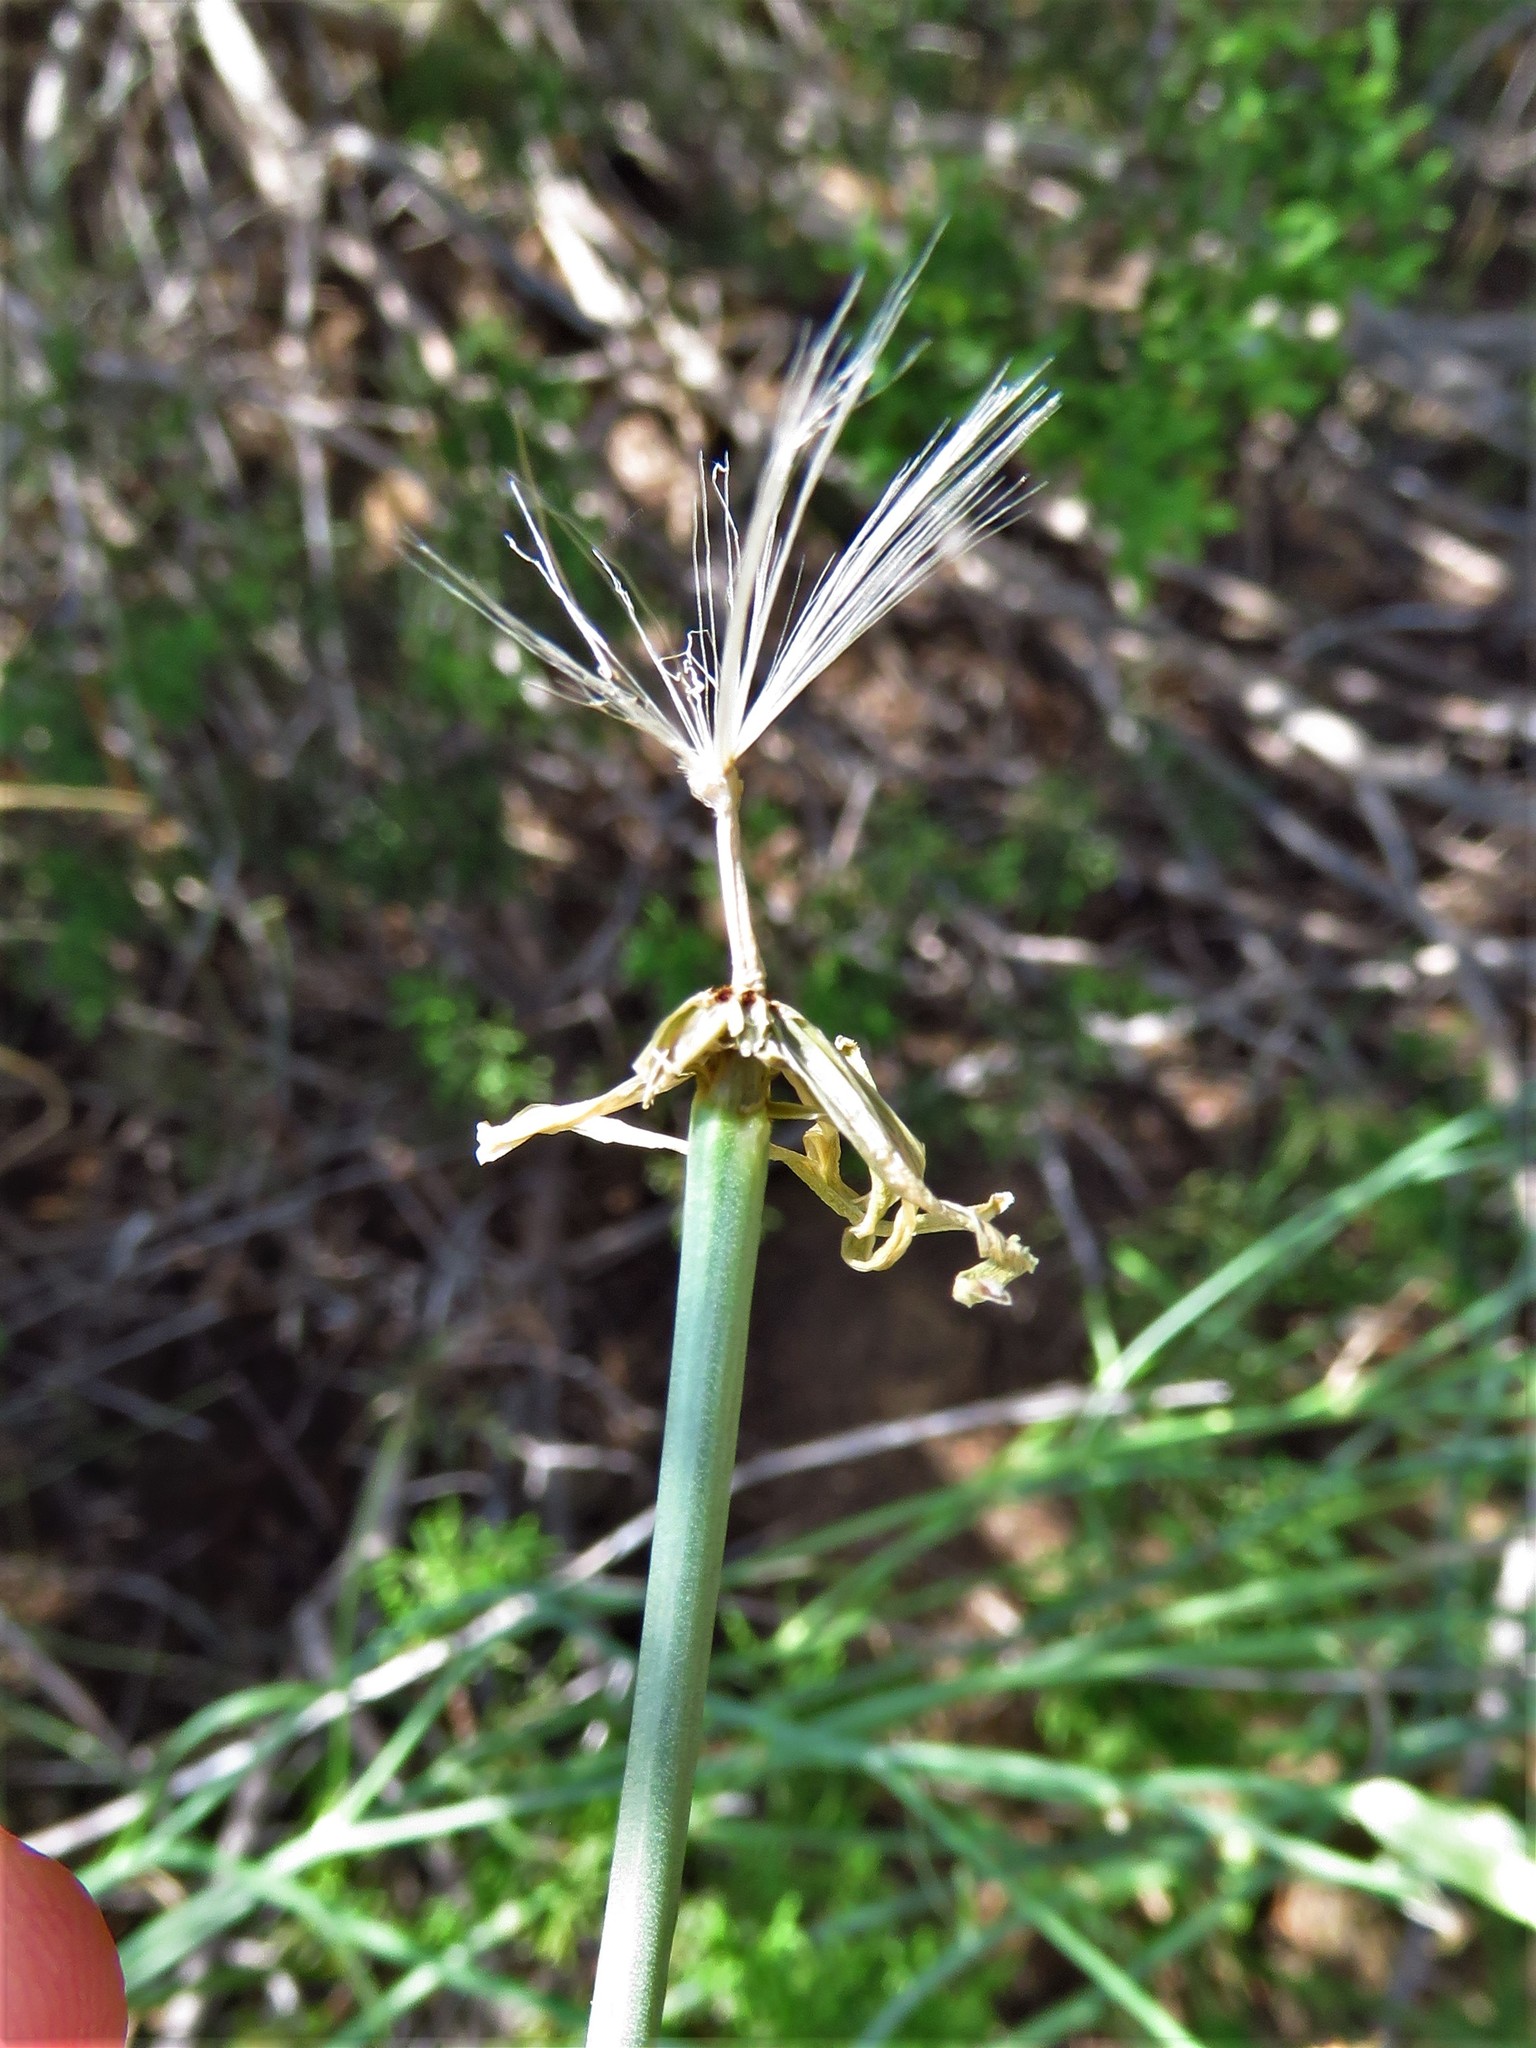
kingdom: Plantae
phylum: Tracheophyta
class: Magnoliopsida
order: Asterales
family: Asteraceae
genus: Lygodesmia
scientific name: Lygodesmia texana
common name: Texas skeleton-plant
